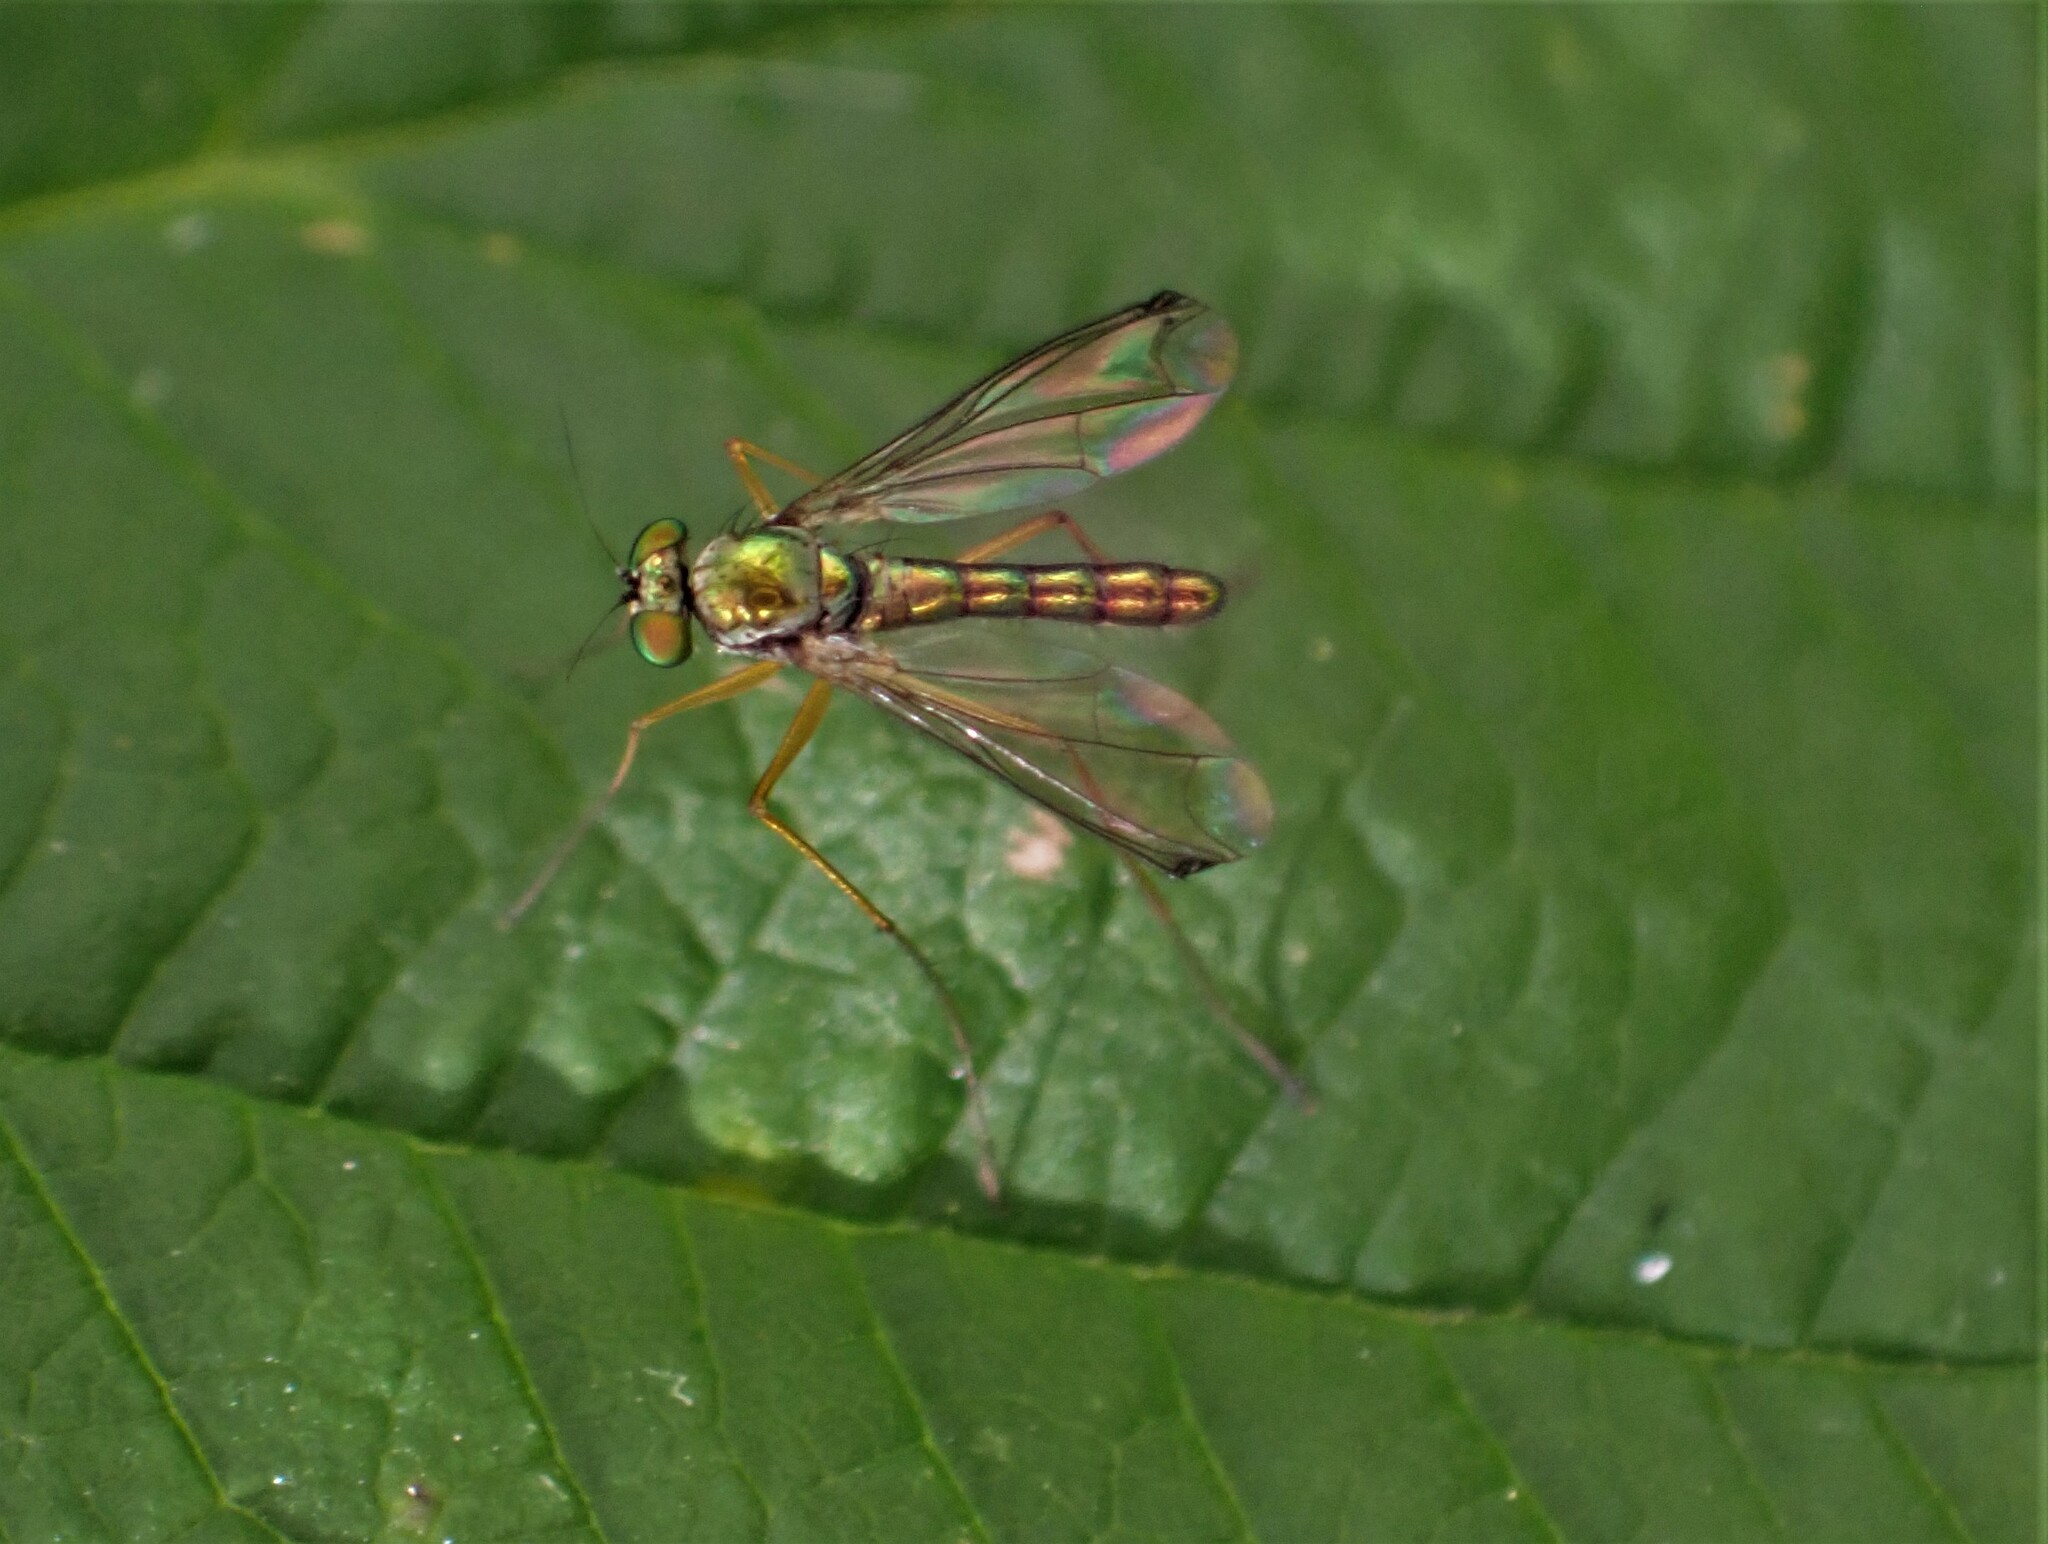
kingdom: Animalia
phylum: Arthropoda
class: Insecta
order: Diptera
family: Dolichopodidae
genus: Parentia
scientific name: Parentia anomalicosta
